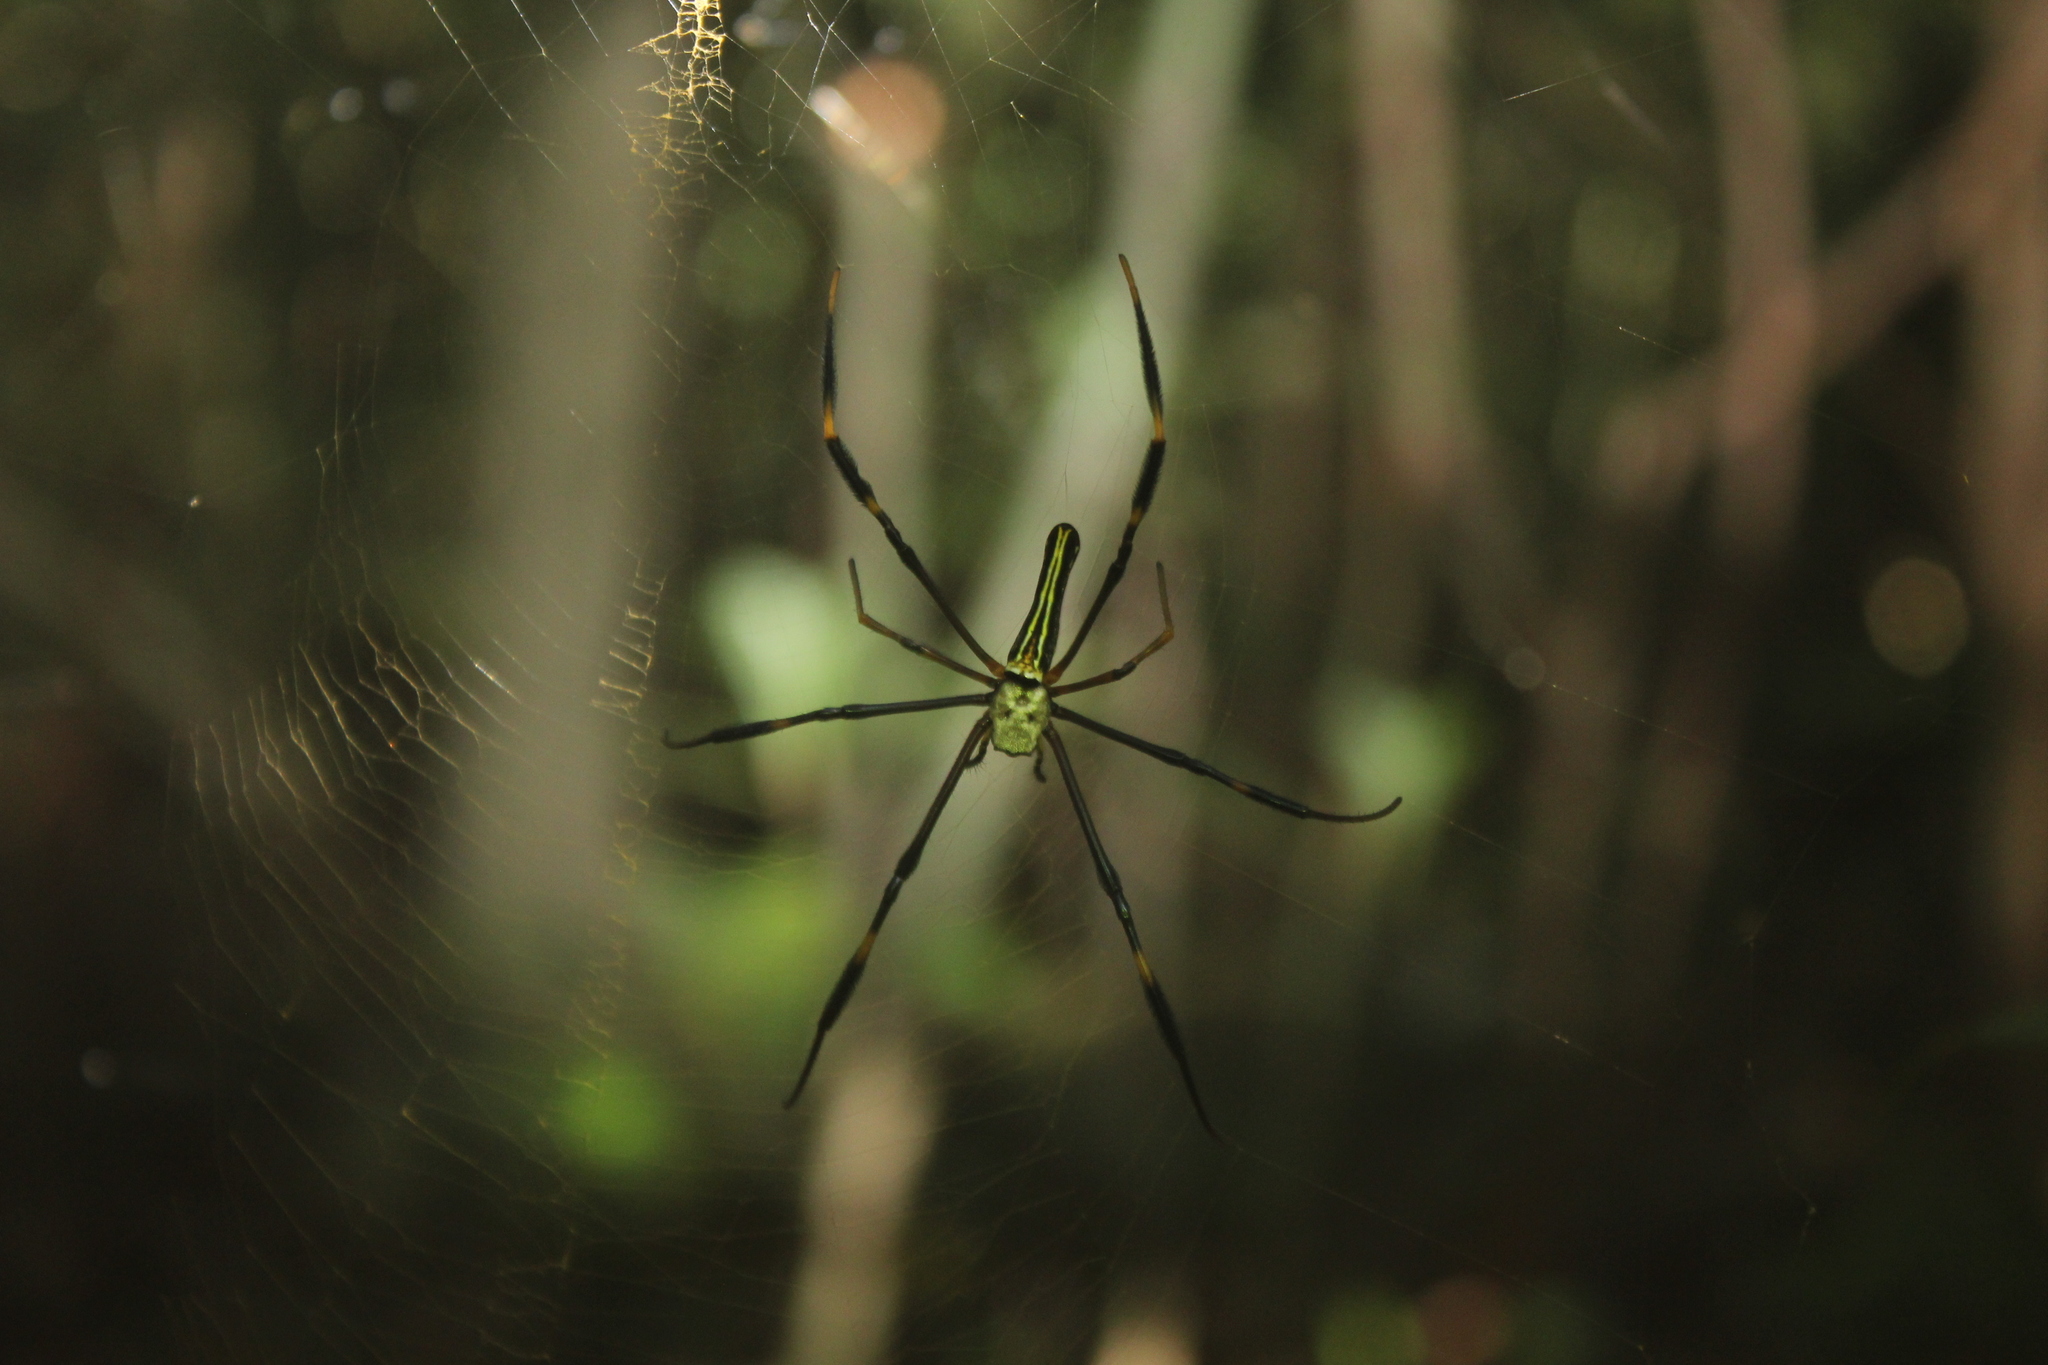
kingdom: Animalia
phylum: Arthropoda
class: Arachnida
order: Araneae
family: Araneidae
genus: Nephila
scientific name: Nephila pilipes
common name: Giant golden orb weaver
